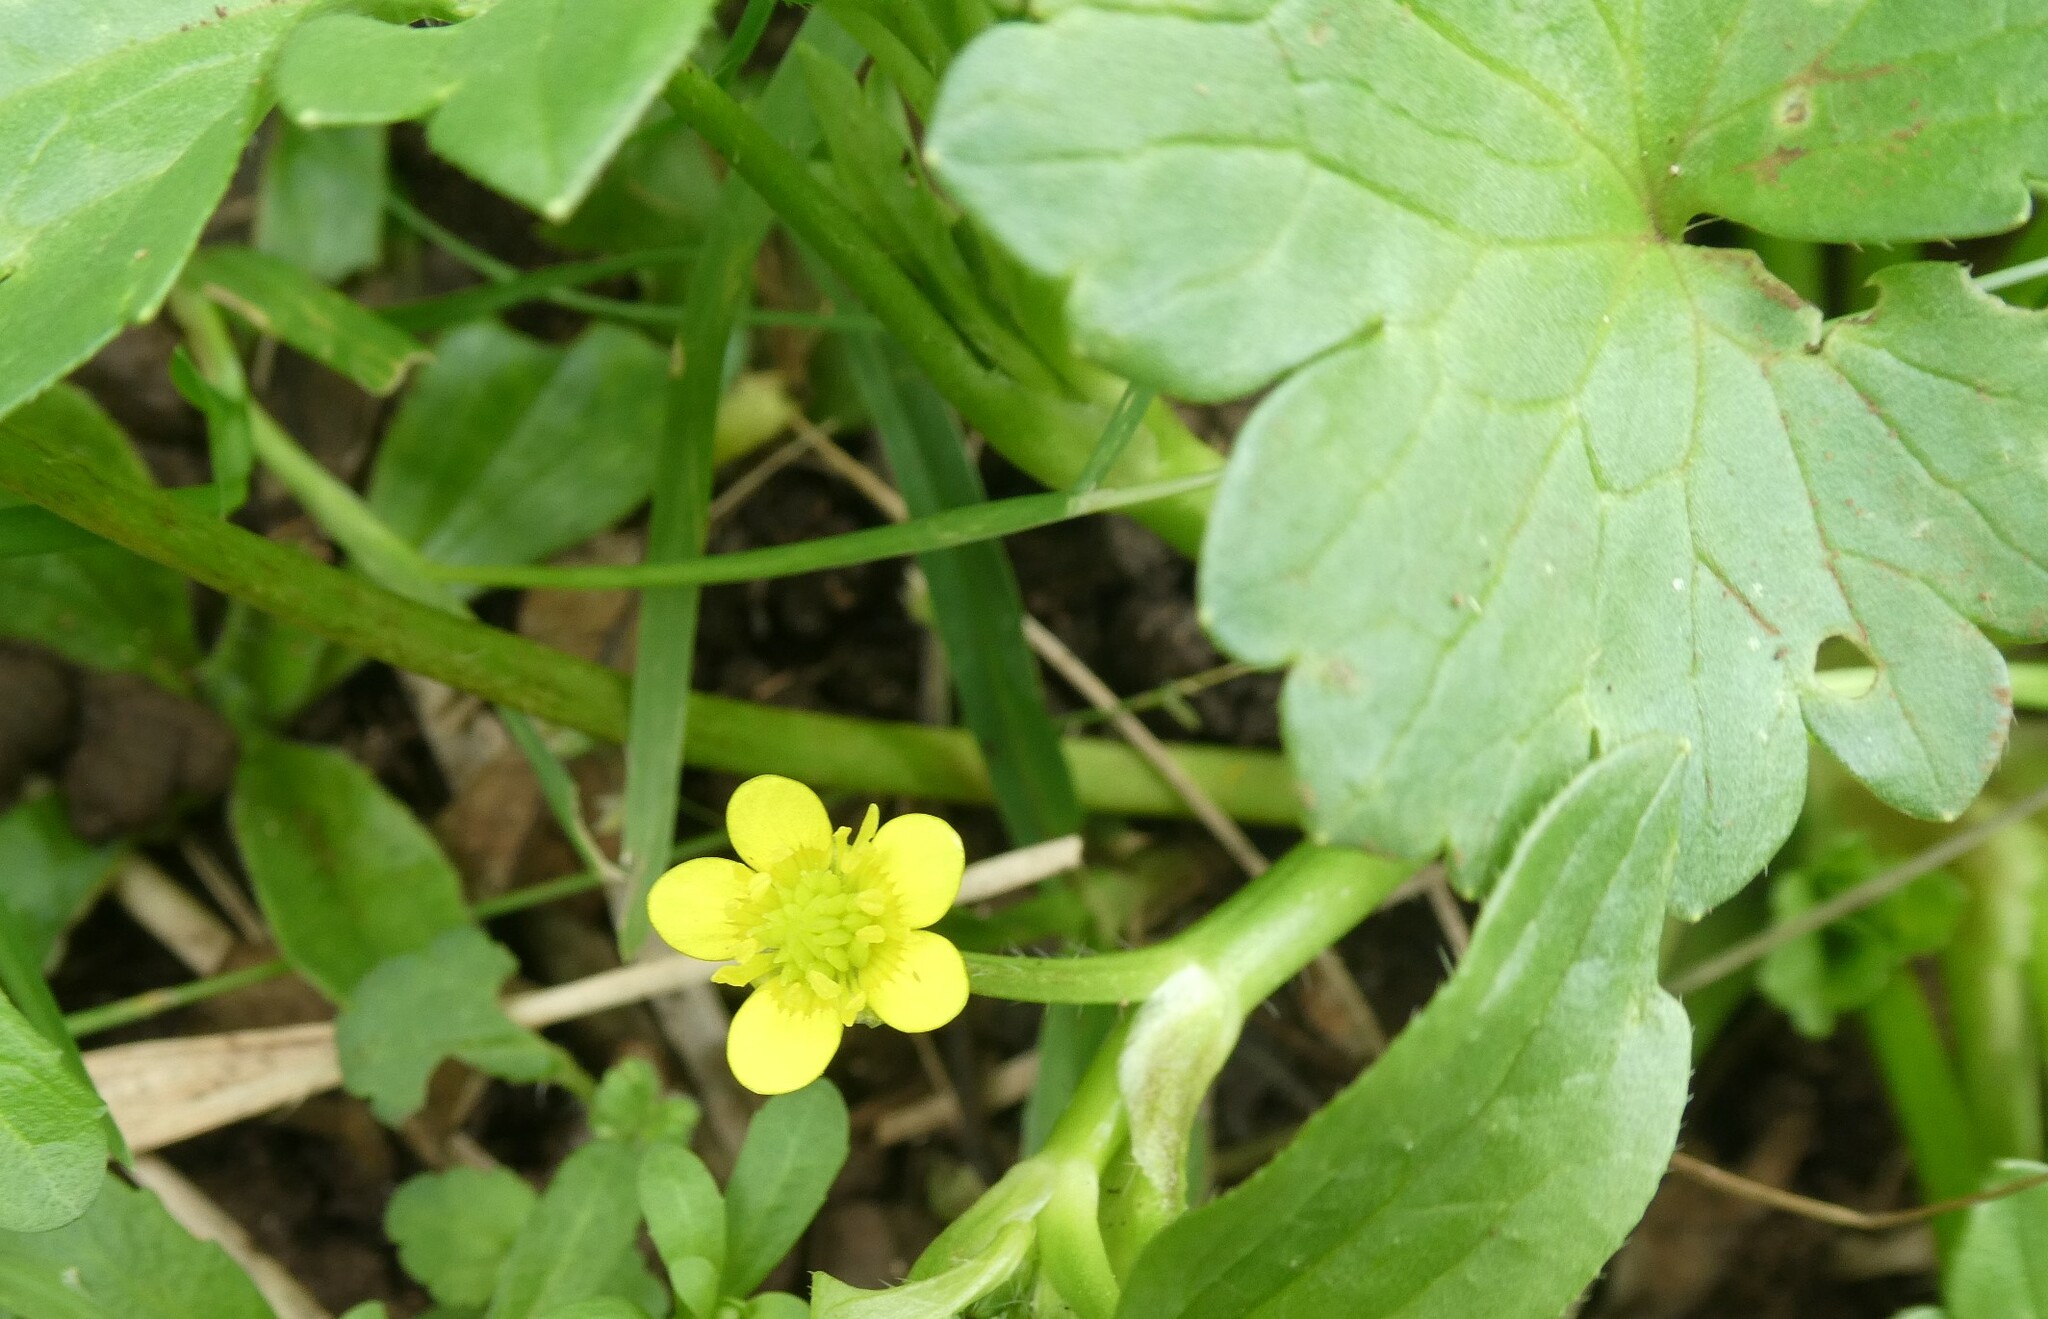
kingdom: Plantae
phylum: Tracheophyta
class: Magnoliopsida
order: Ranunculales
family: Ranunculaceae
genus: Ranunculus
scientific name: Ranunculus muricatus
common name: Rough-fruited buttercup
